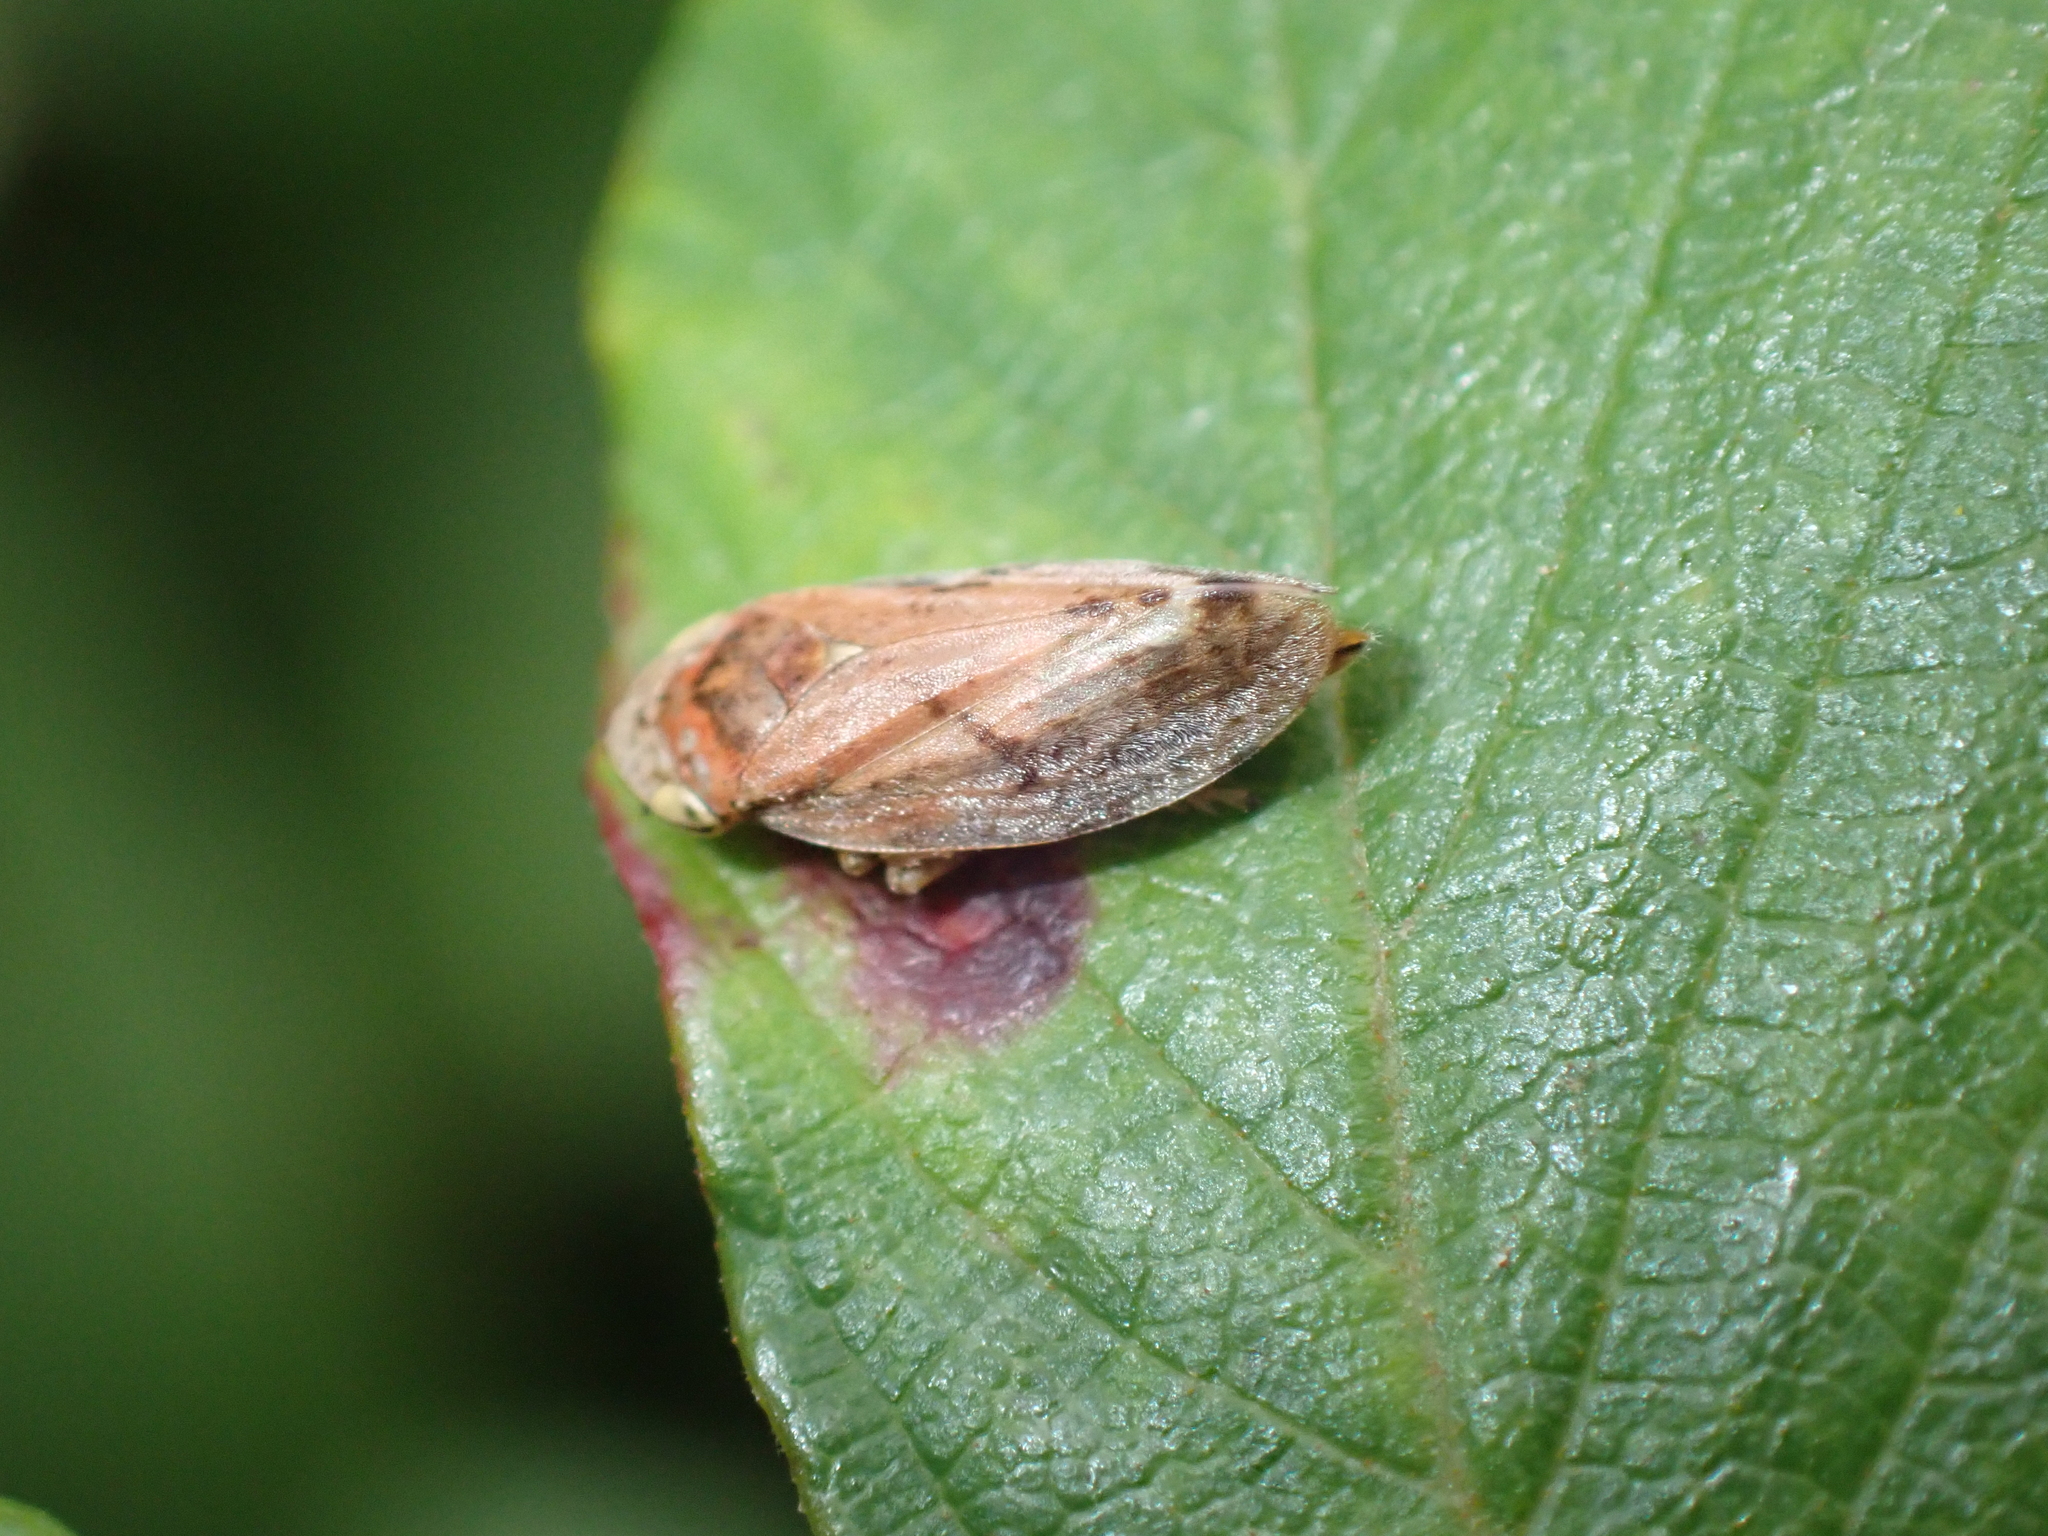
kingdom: Animalia
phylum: Arthropoda
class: Insecta
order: Hemiptera
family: Aphrophoridae
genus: Philaenus
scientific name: Philaenus spumarius
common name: Meadow spittlebug
